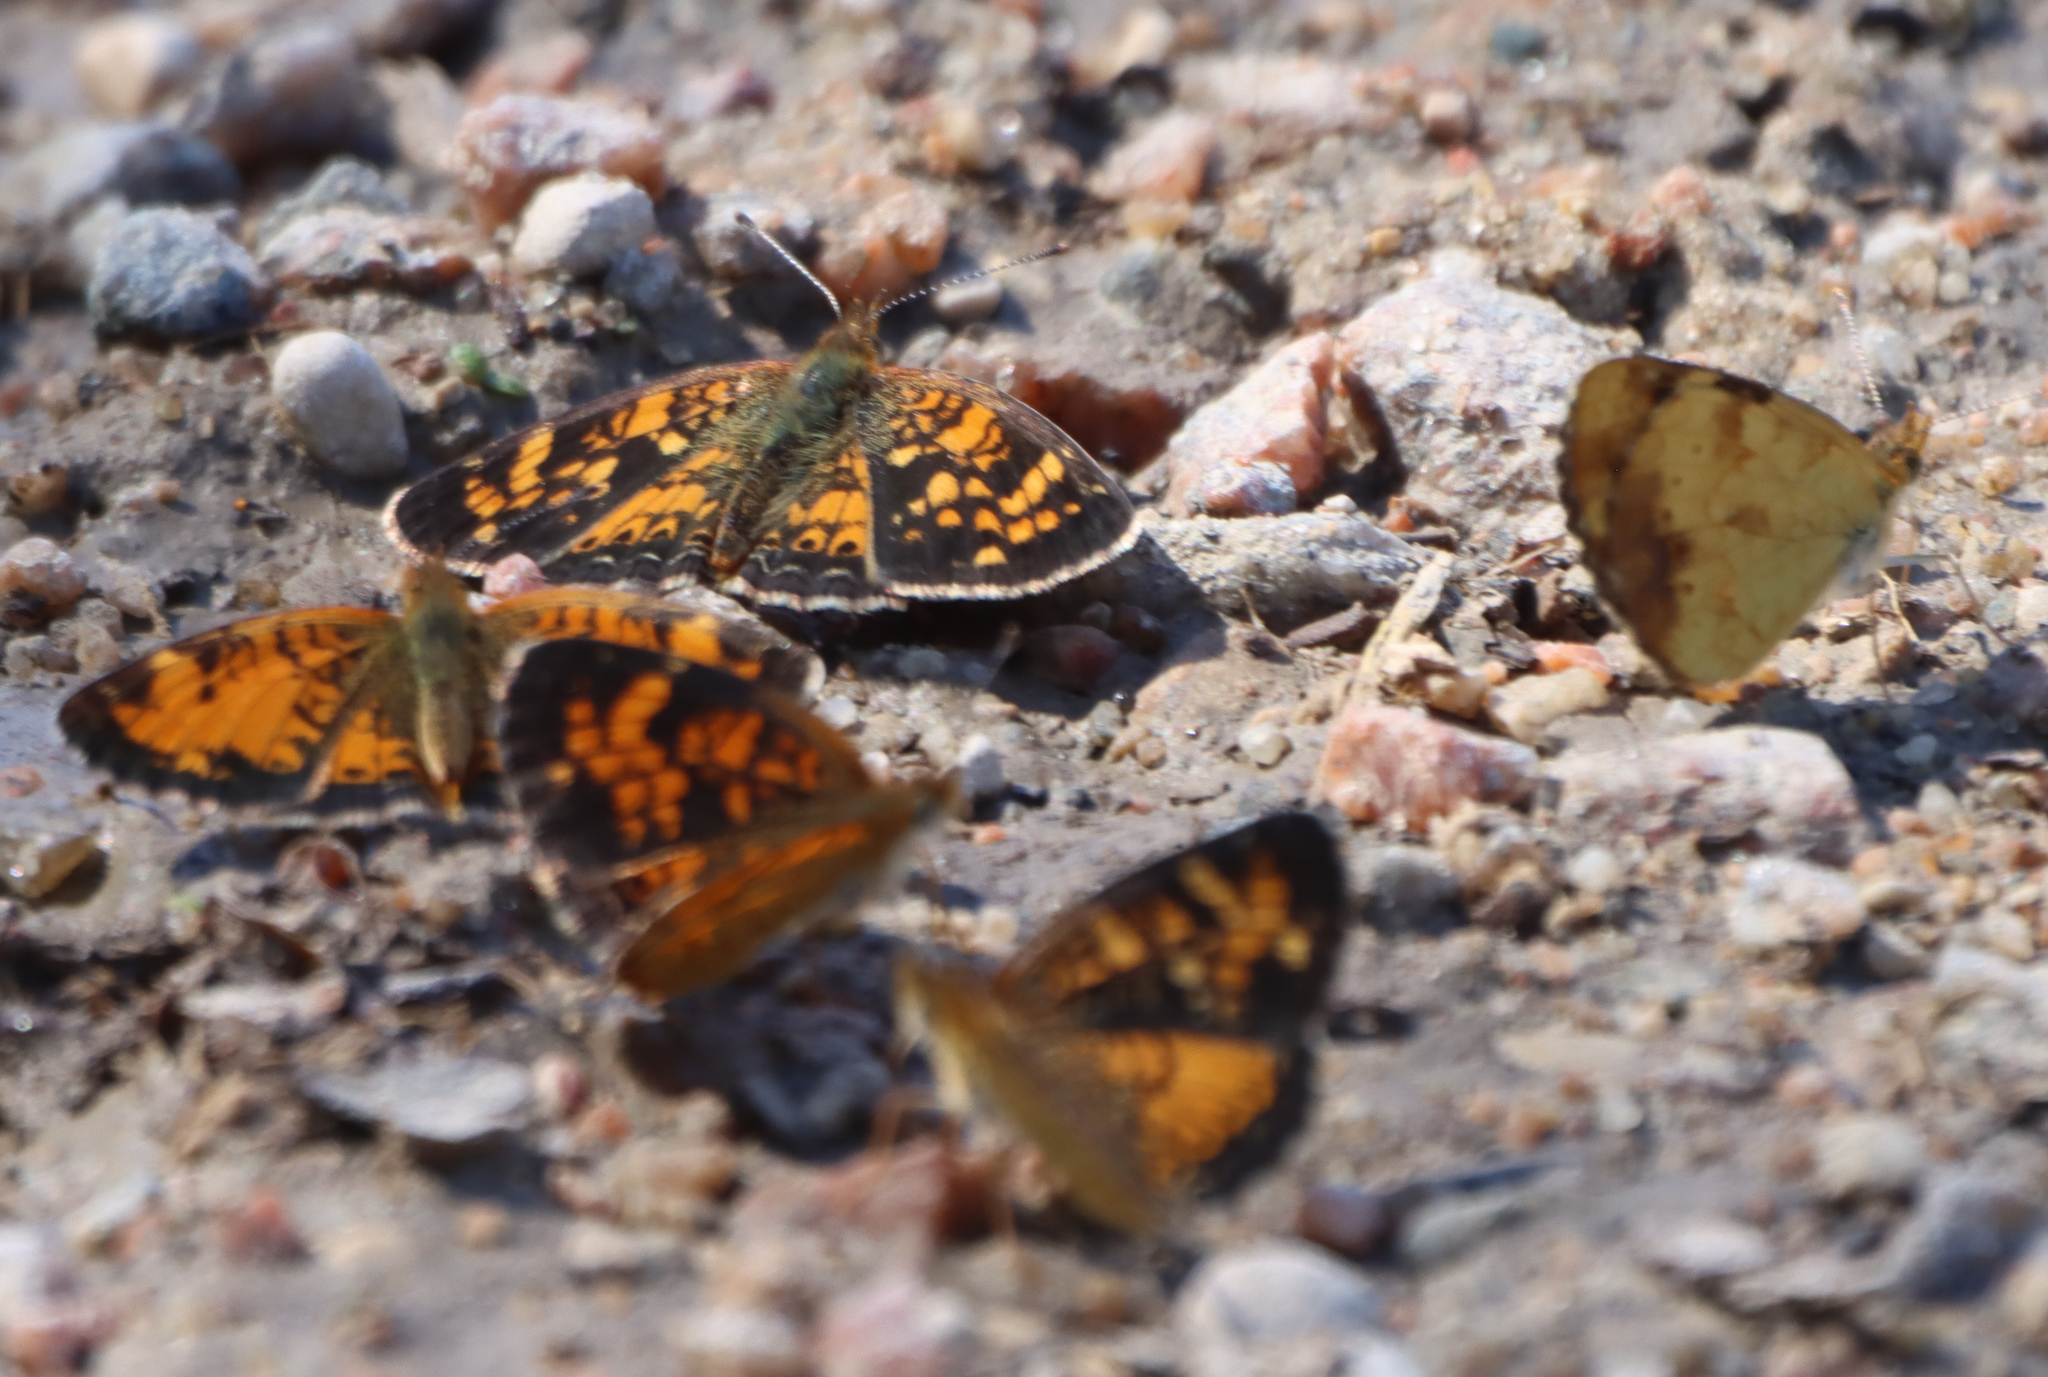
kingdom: Animalia
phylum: Arthropoda
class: Insecta
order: Lepidoptera
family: Nymphalidae
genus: Phyciodes
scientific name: Phyciodes tharos
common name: Pearl crescent
